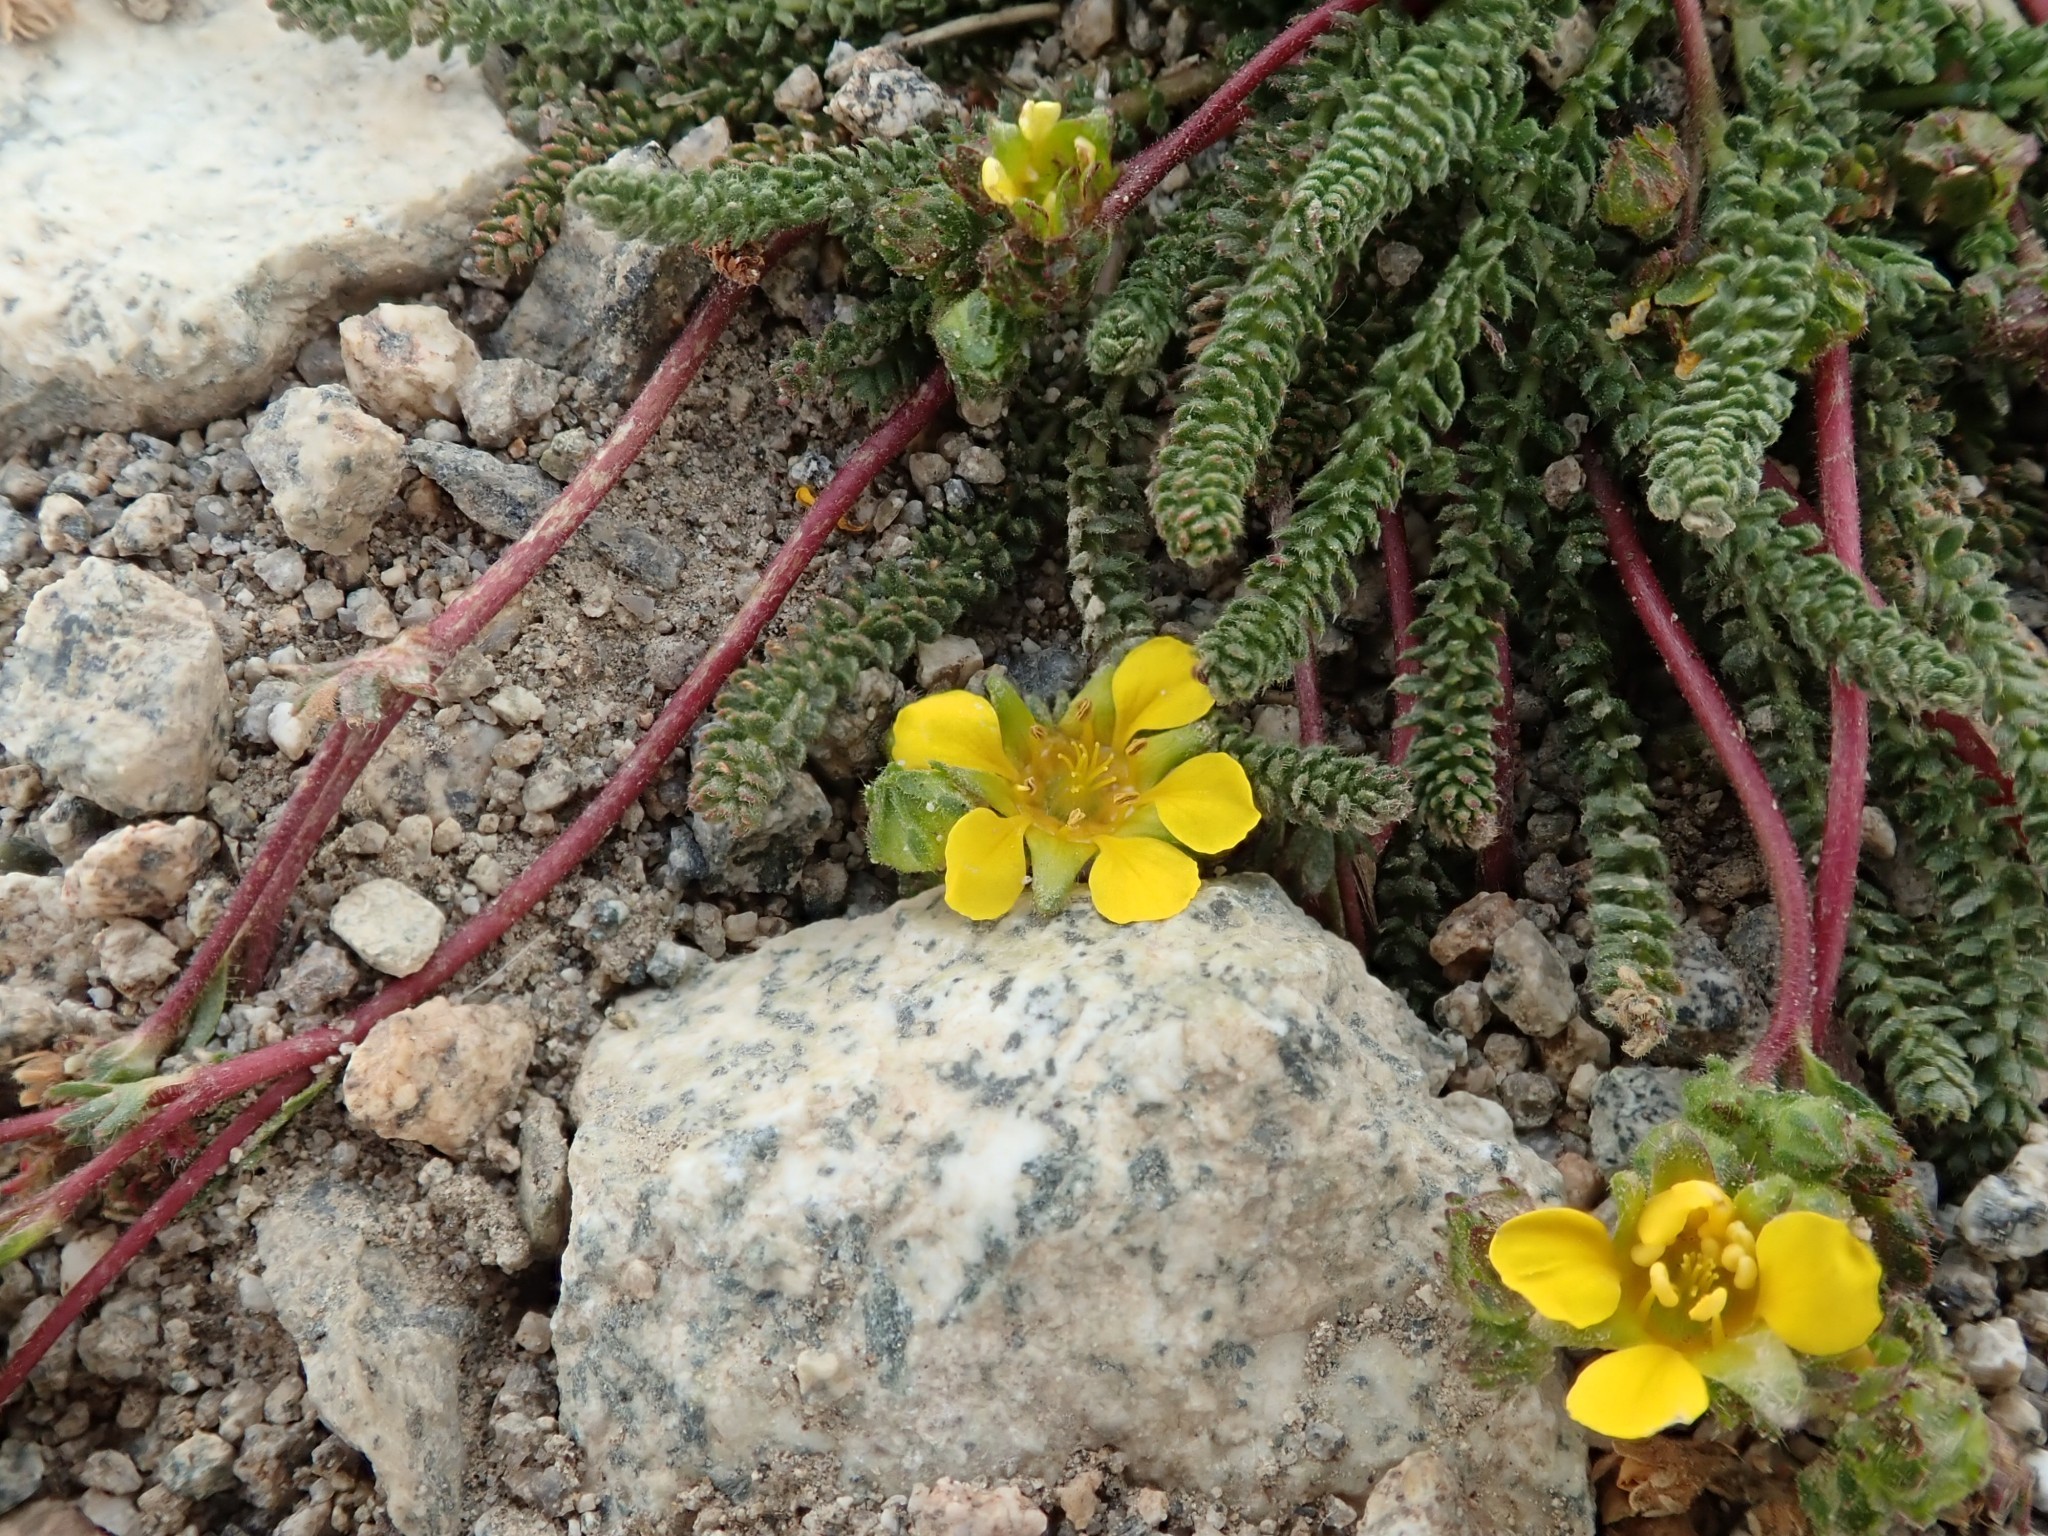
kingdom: Plantae
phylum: Tracheophyta
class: Magnoliopsida
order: Rosales
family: Rosaceae
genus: Potentilla
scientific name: Potentilla lycopodioides
